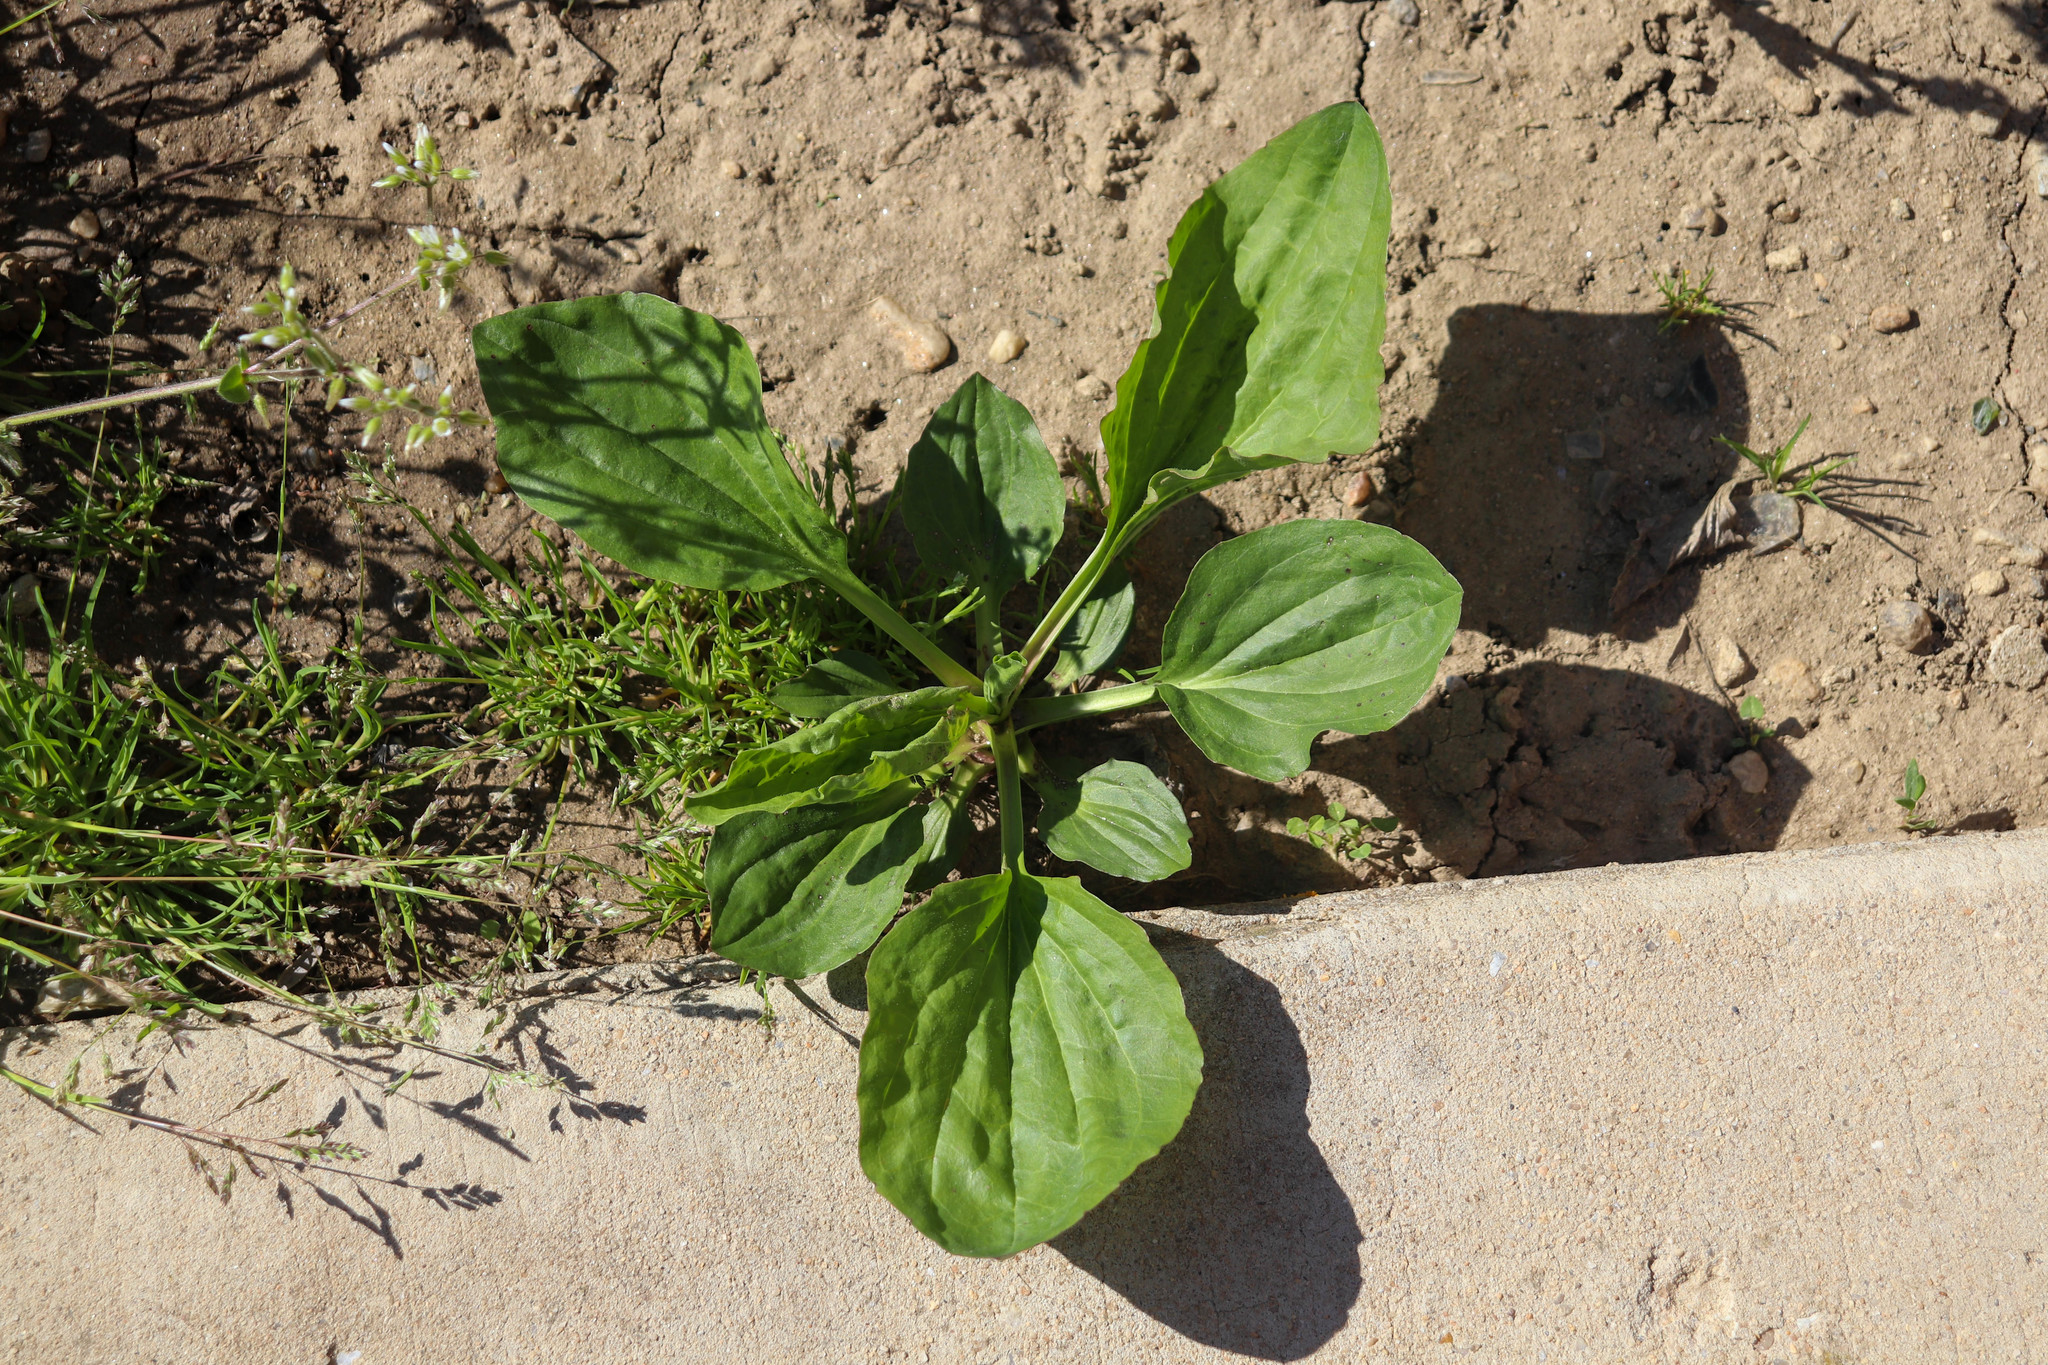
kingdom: Plantae
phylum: Tracheophyta
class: Magnoliopsida
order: Lamiales
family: Plantaginaceae
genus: Plantago
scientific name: Plantago major
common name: Common plantain
